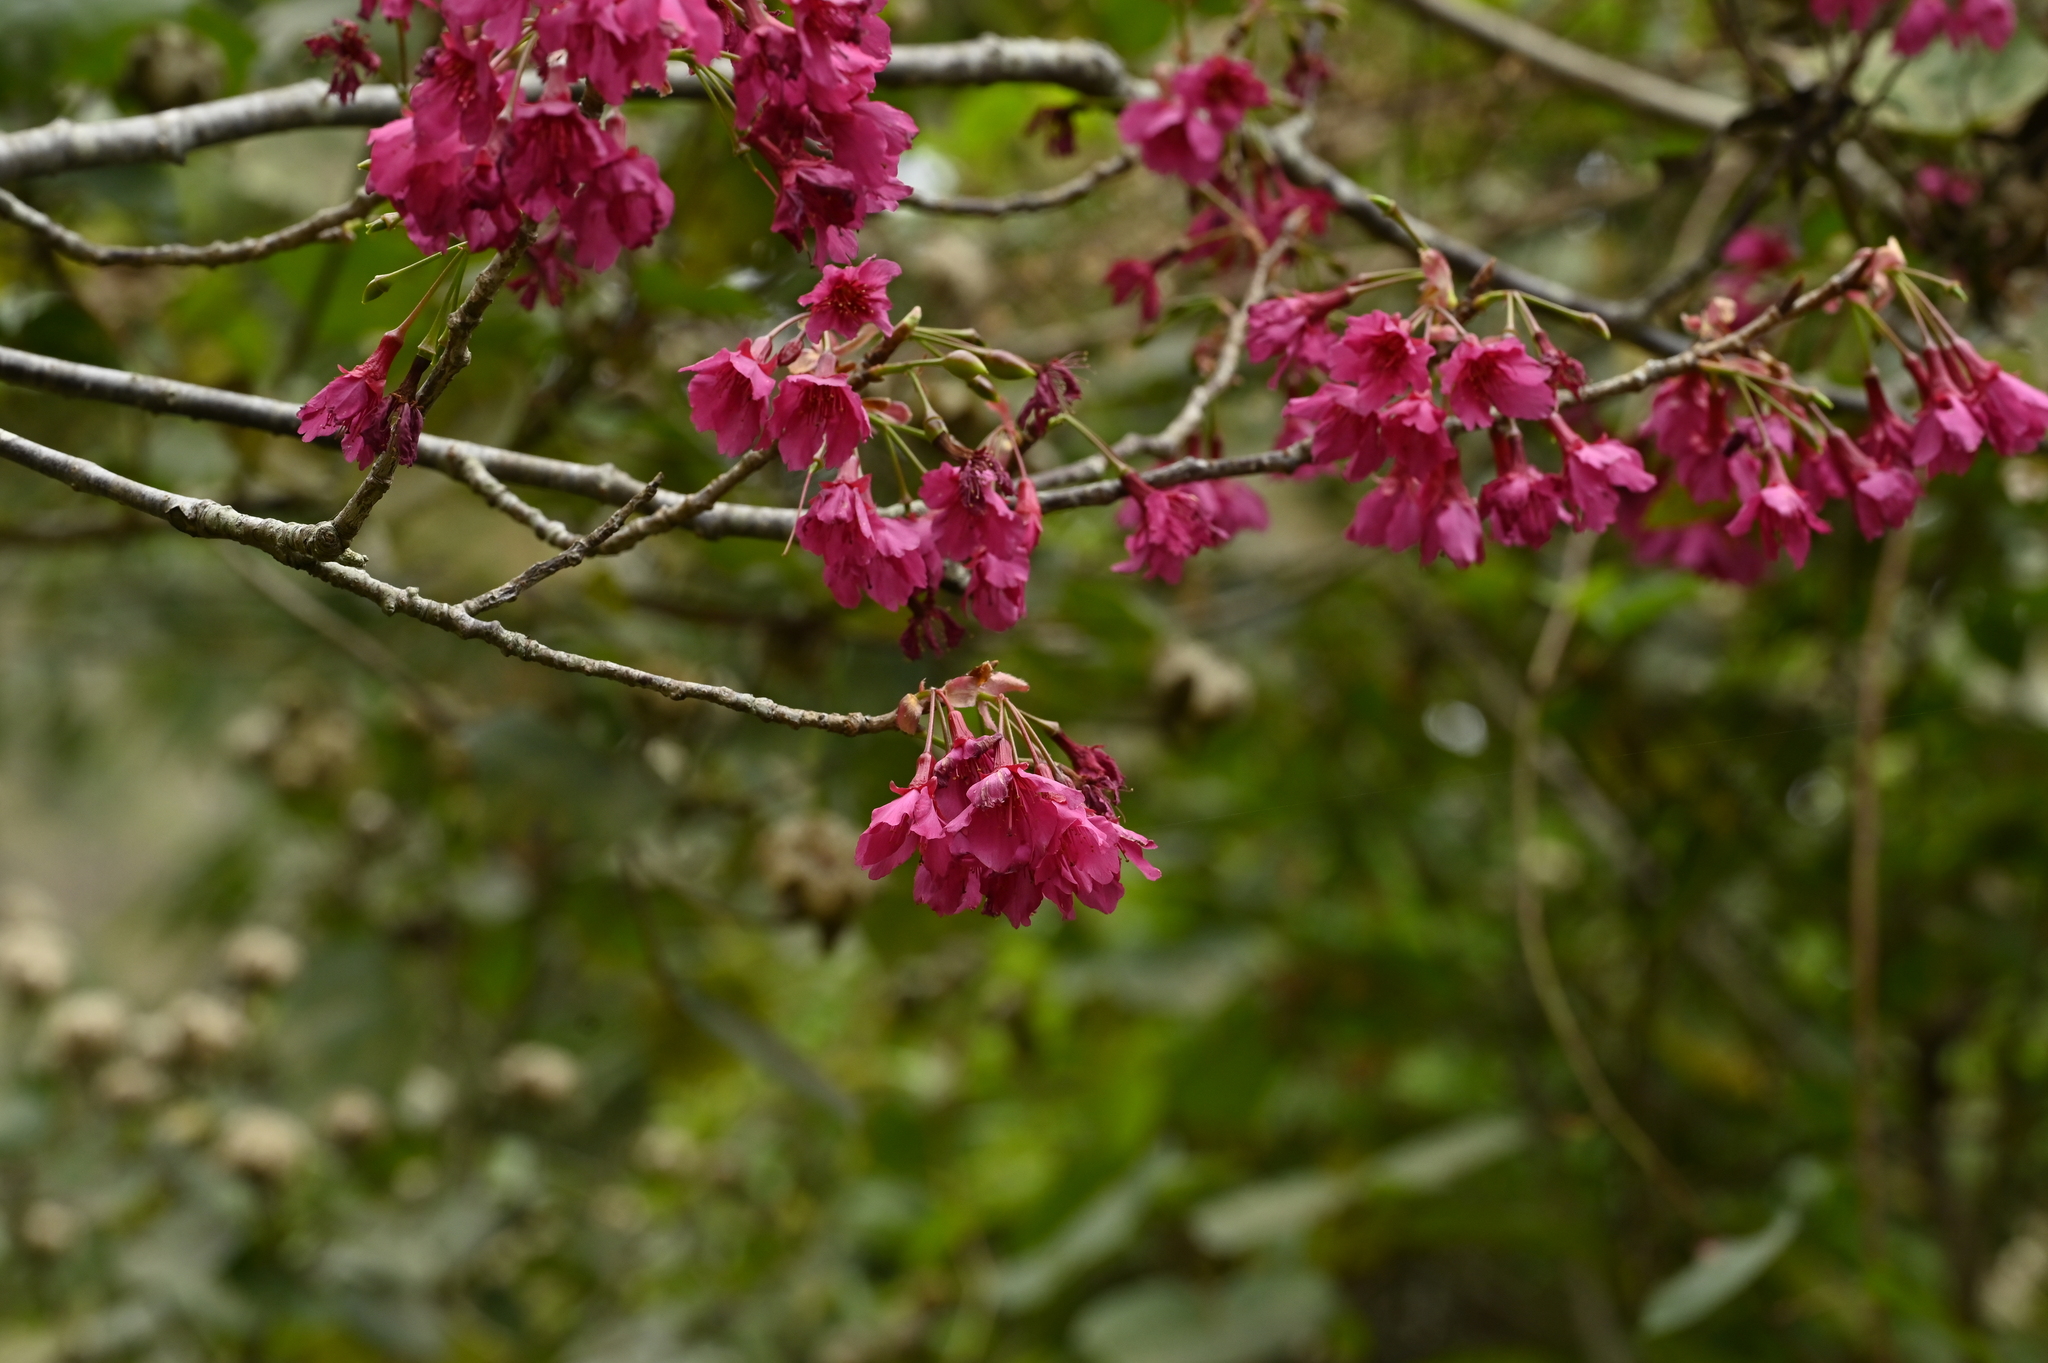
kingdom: Plantae
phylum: Tracheophyta
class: Magnoliopsida
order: Rosales
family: Rosaceae
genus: Prunus
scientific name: Prunus campanulata
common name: Taiwan flowering cherry
